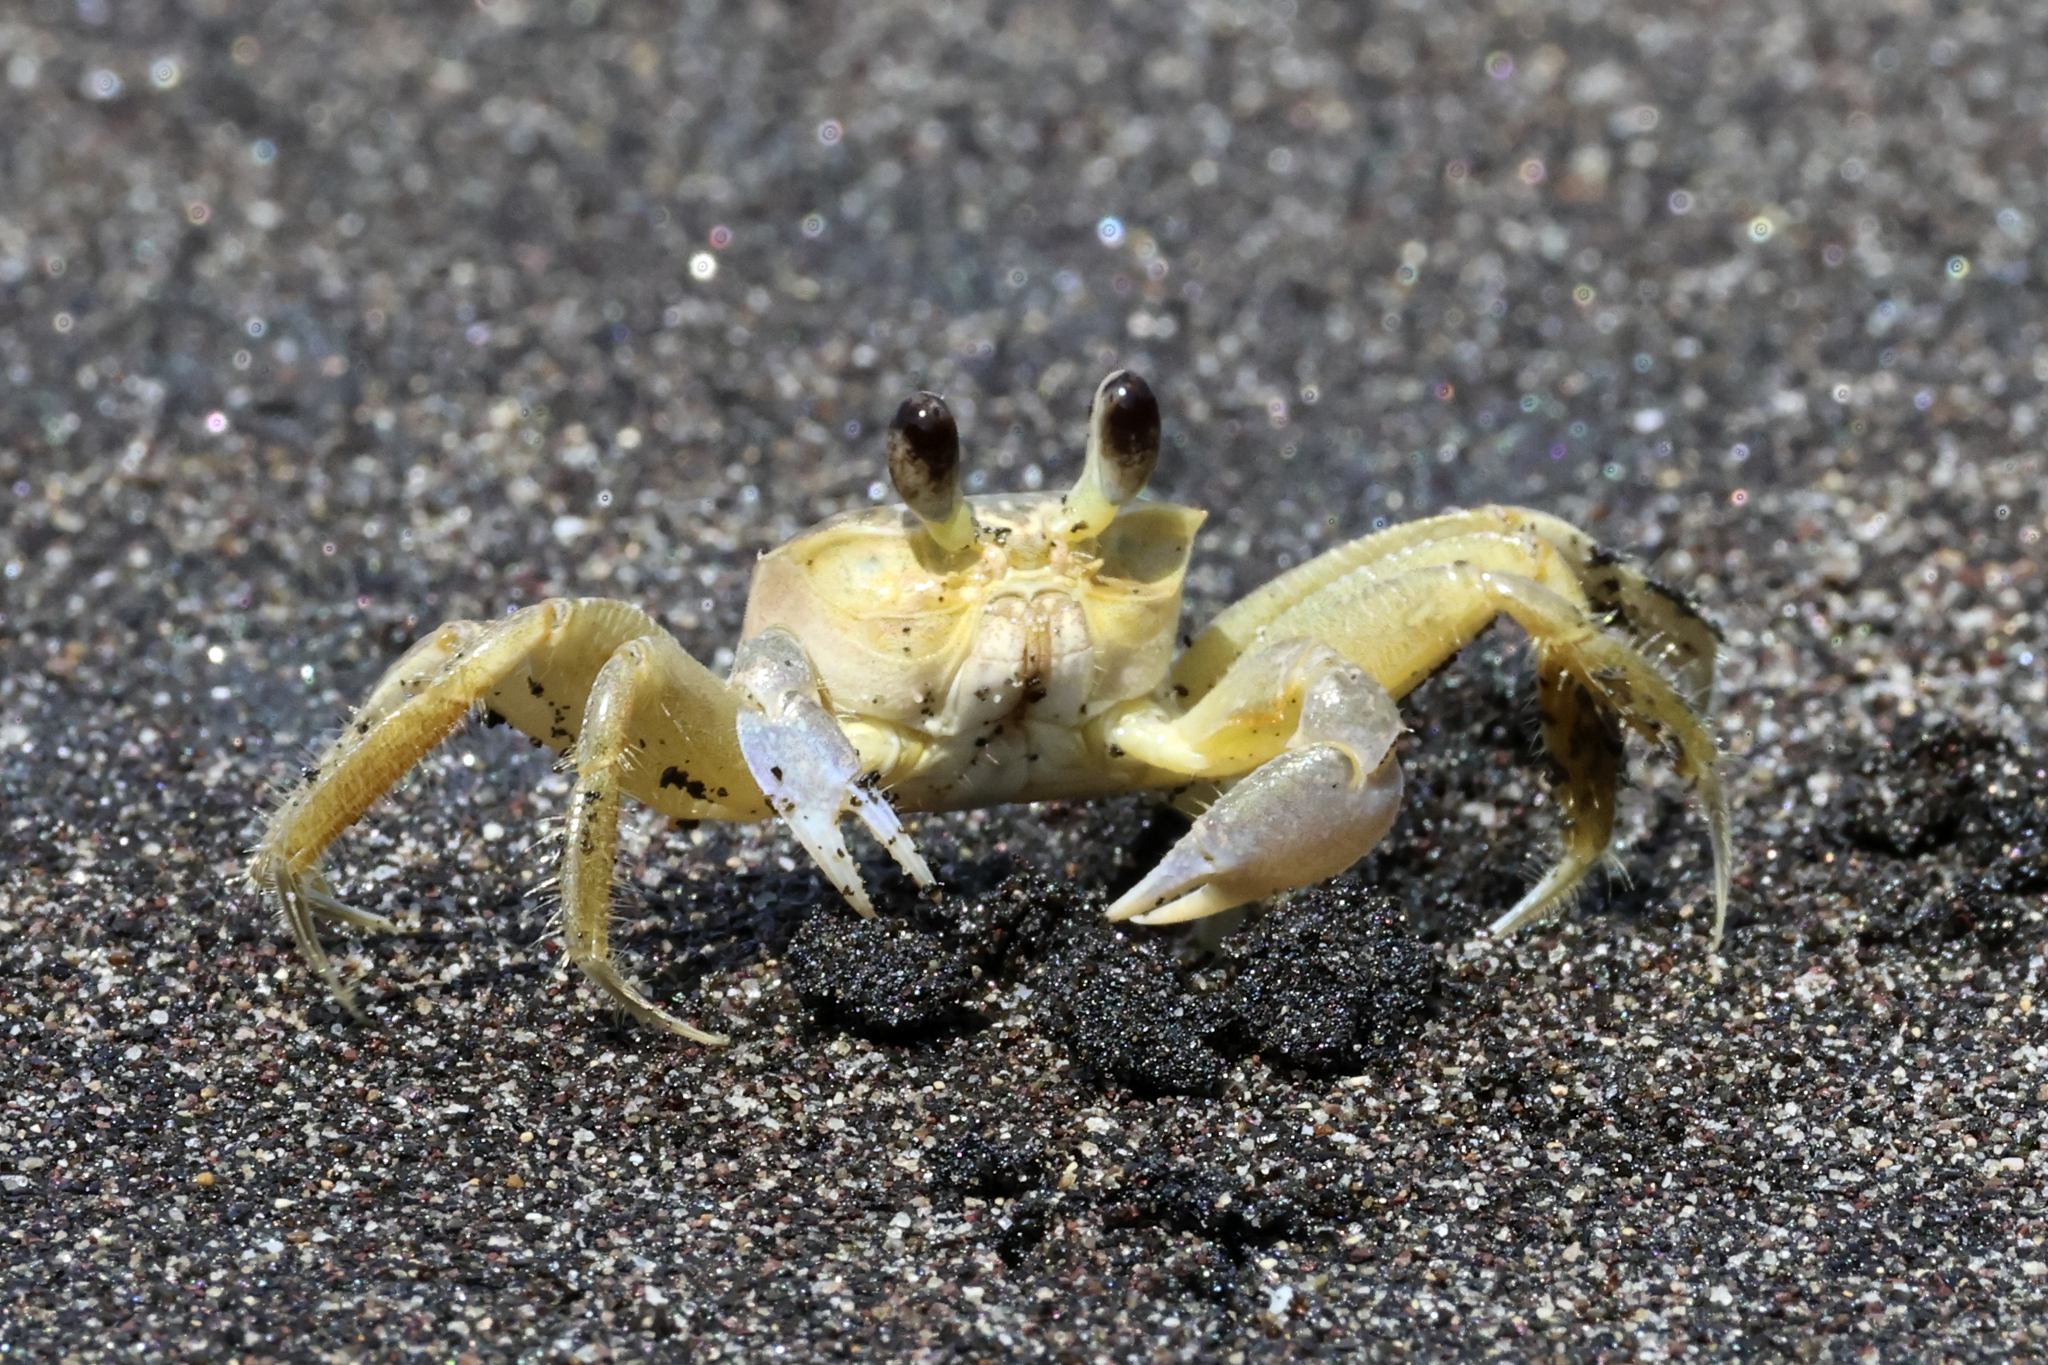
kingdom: Animalia
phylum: Arthropoda
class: Malacostraca
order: Decapoda
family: Ocypodidae
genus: Ocypode
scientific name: Ocypode quadrata
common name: Ghost crab
